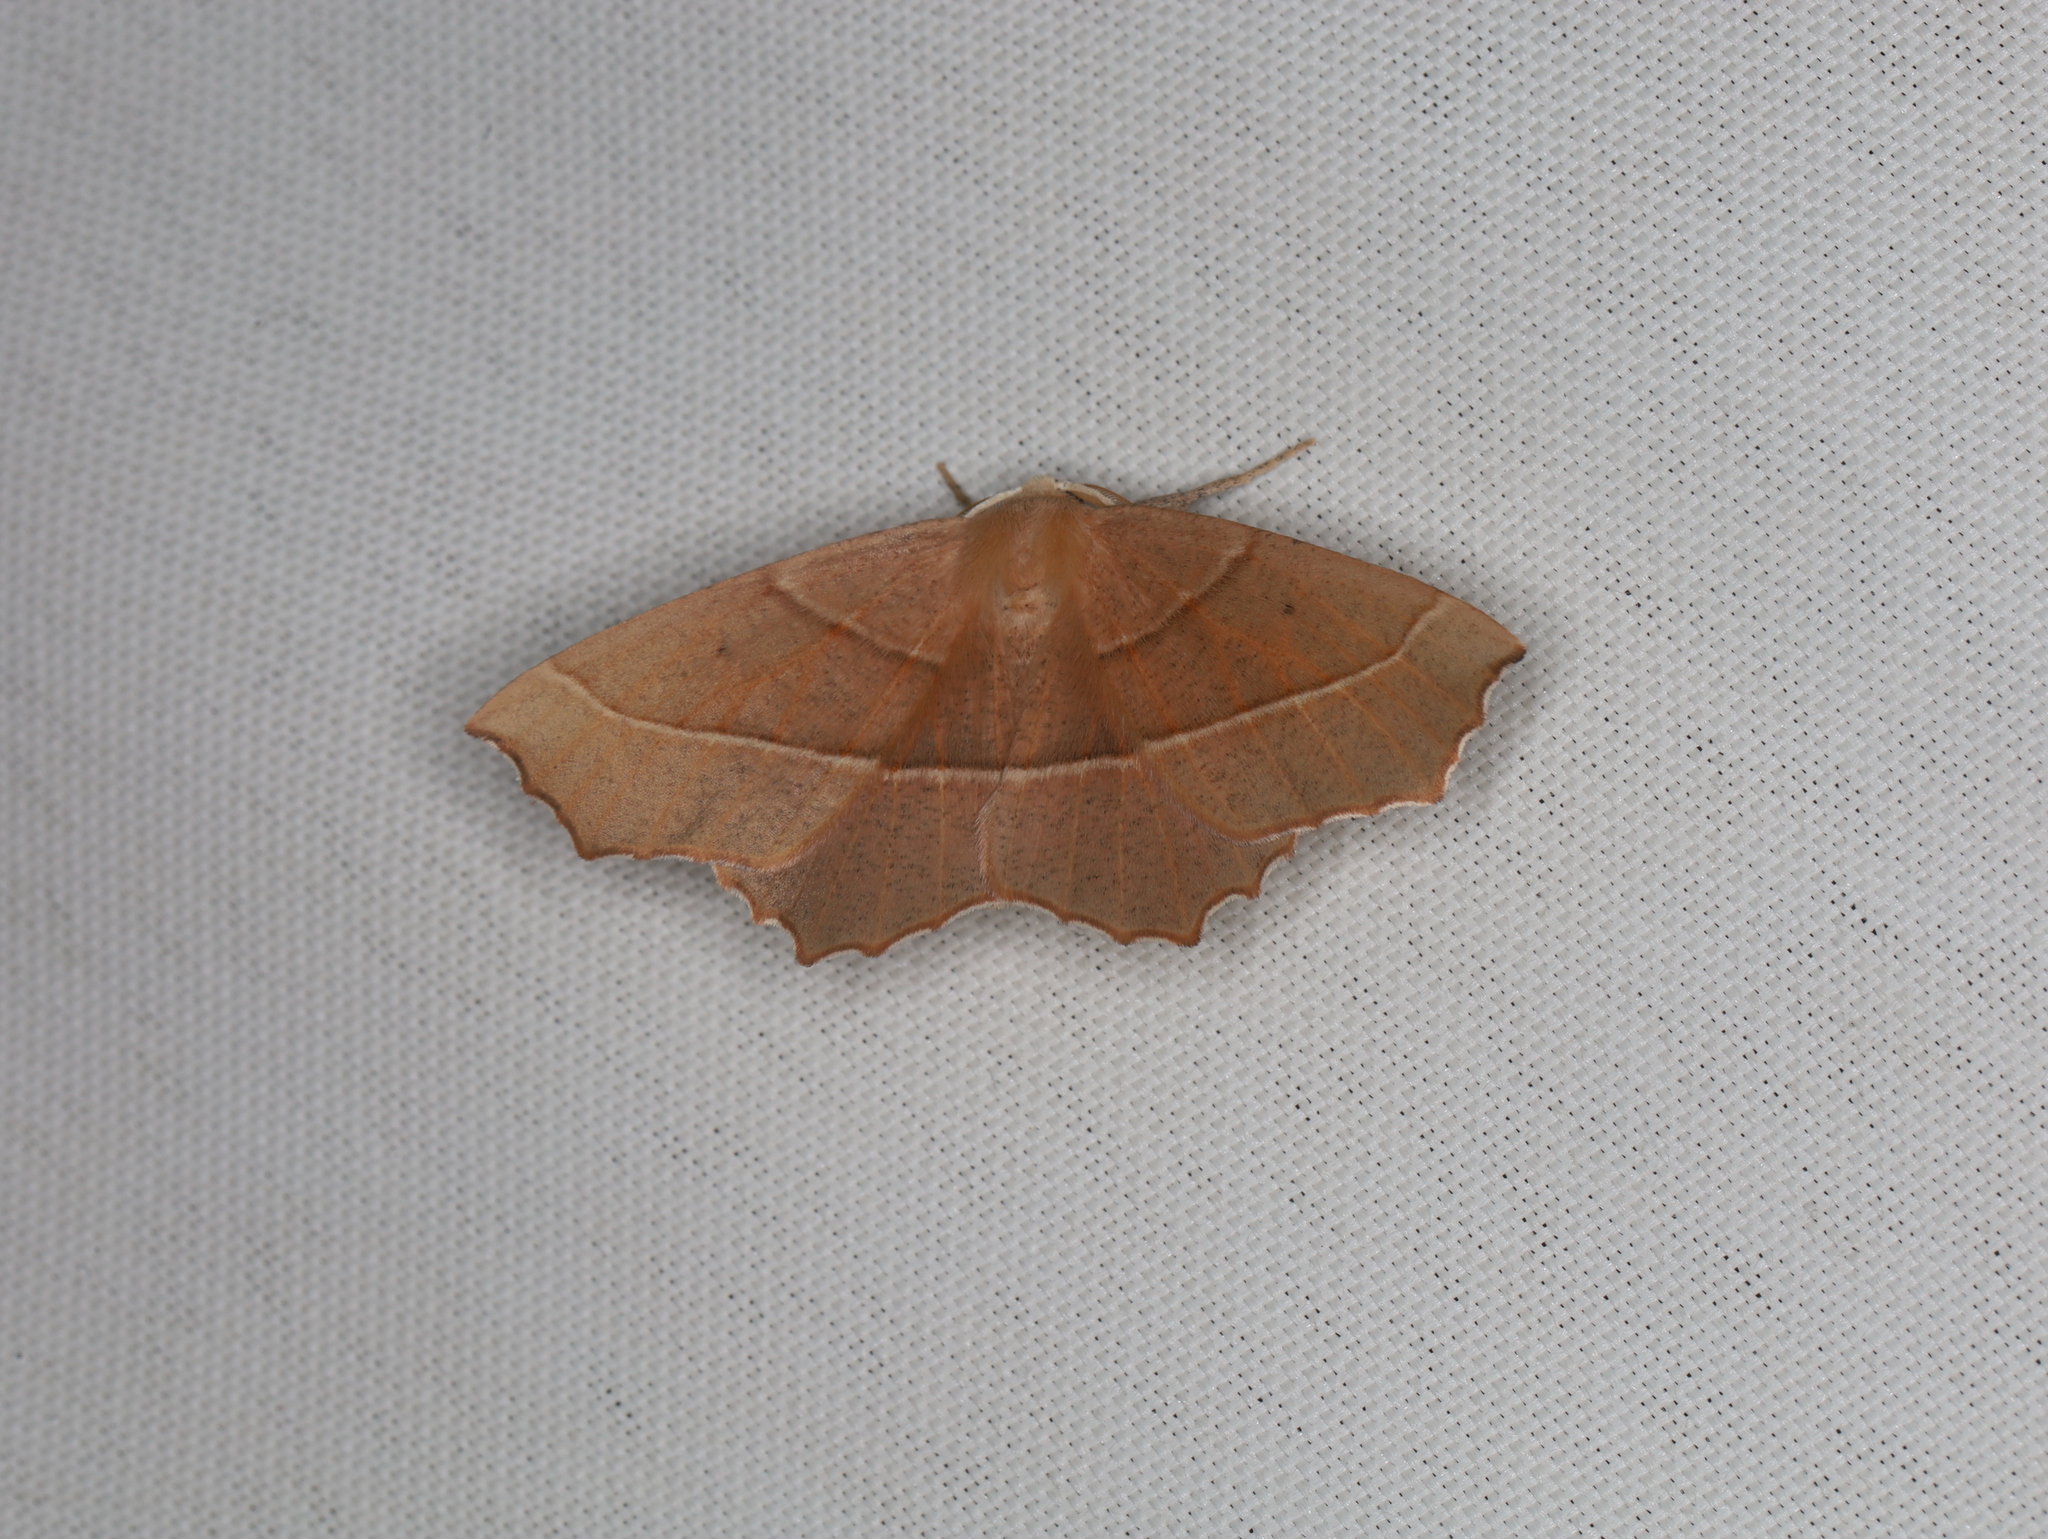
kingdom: Animalia
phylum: Arthropoda
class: Insecta
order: Lepidoptera
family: Geometridae
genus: Gerinia
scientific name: Gerinia honoraria
